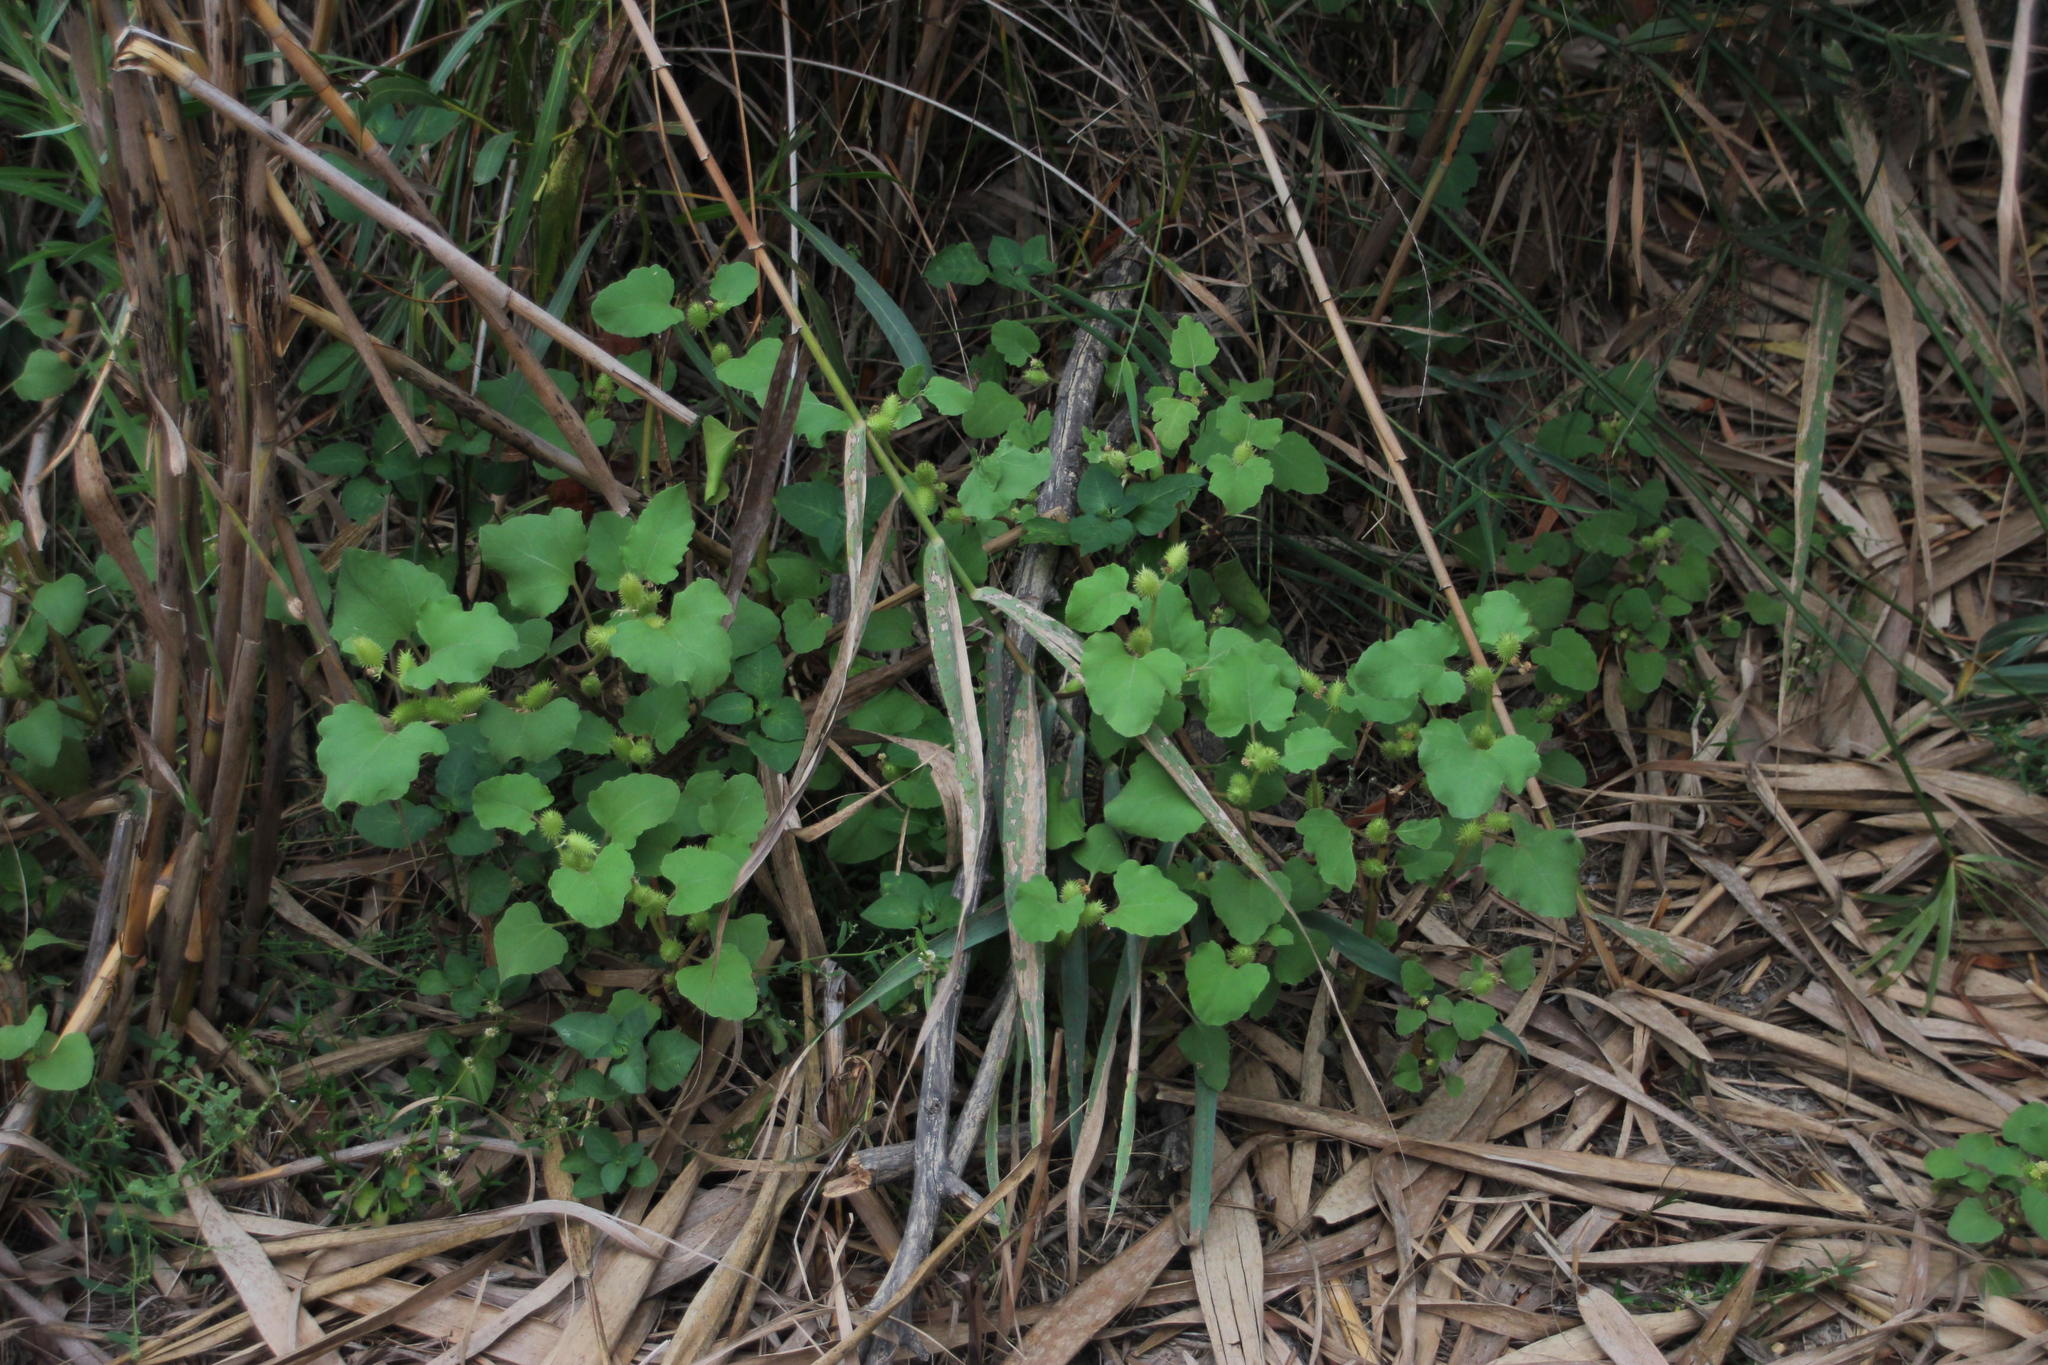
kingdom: Plantae
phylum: Tracheophyta
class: Magnoliopsida
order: Asterales
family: Asteraceae
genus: Xanthium
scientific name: Xanthium strumarium
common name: Rough cocklebur
